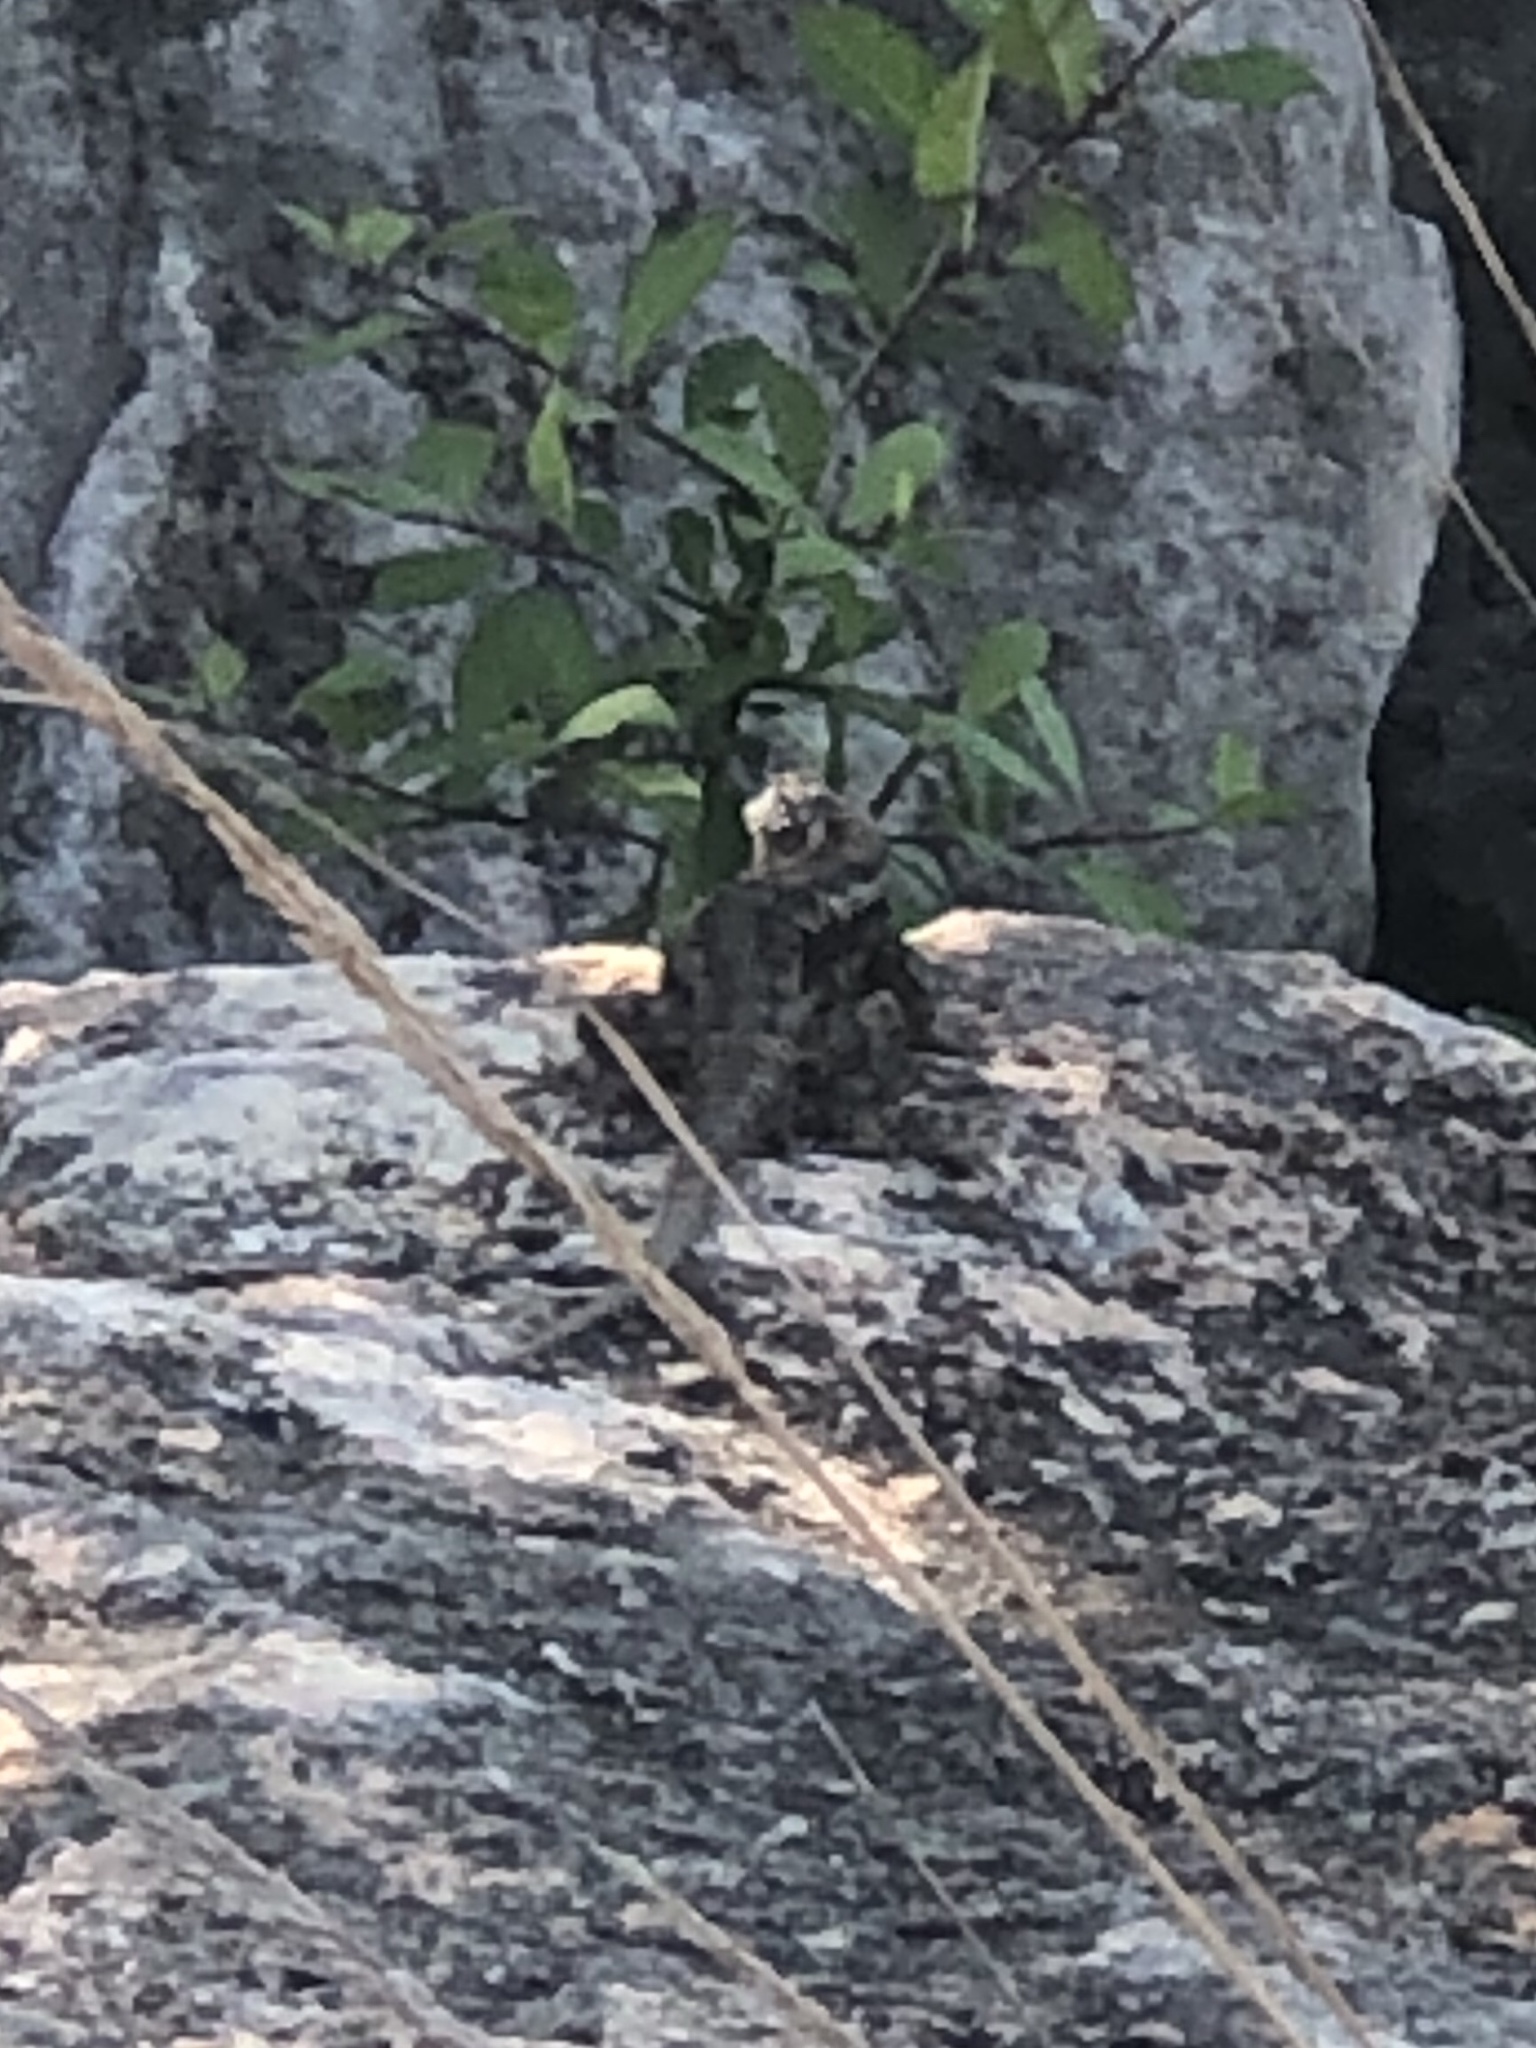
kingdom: Animalia
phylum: Chordata
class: Squamata
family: Phrynosomatidae
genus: Sceloporus
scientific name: Sceloporus olivaceus
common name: Texas spiny lizard
